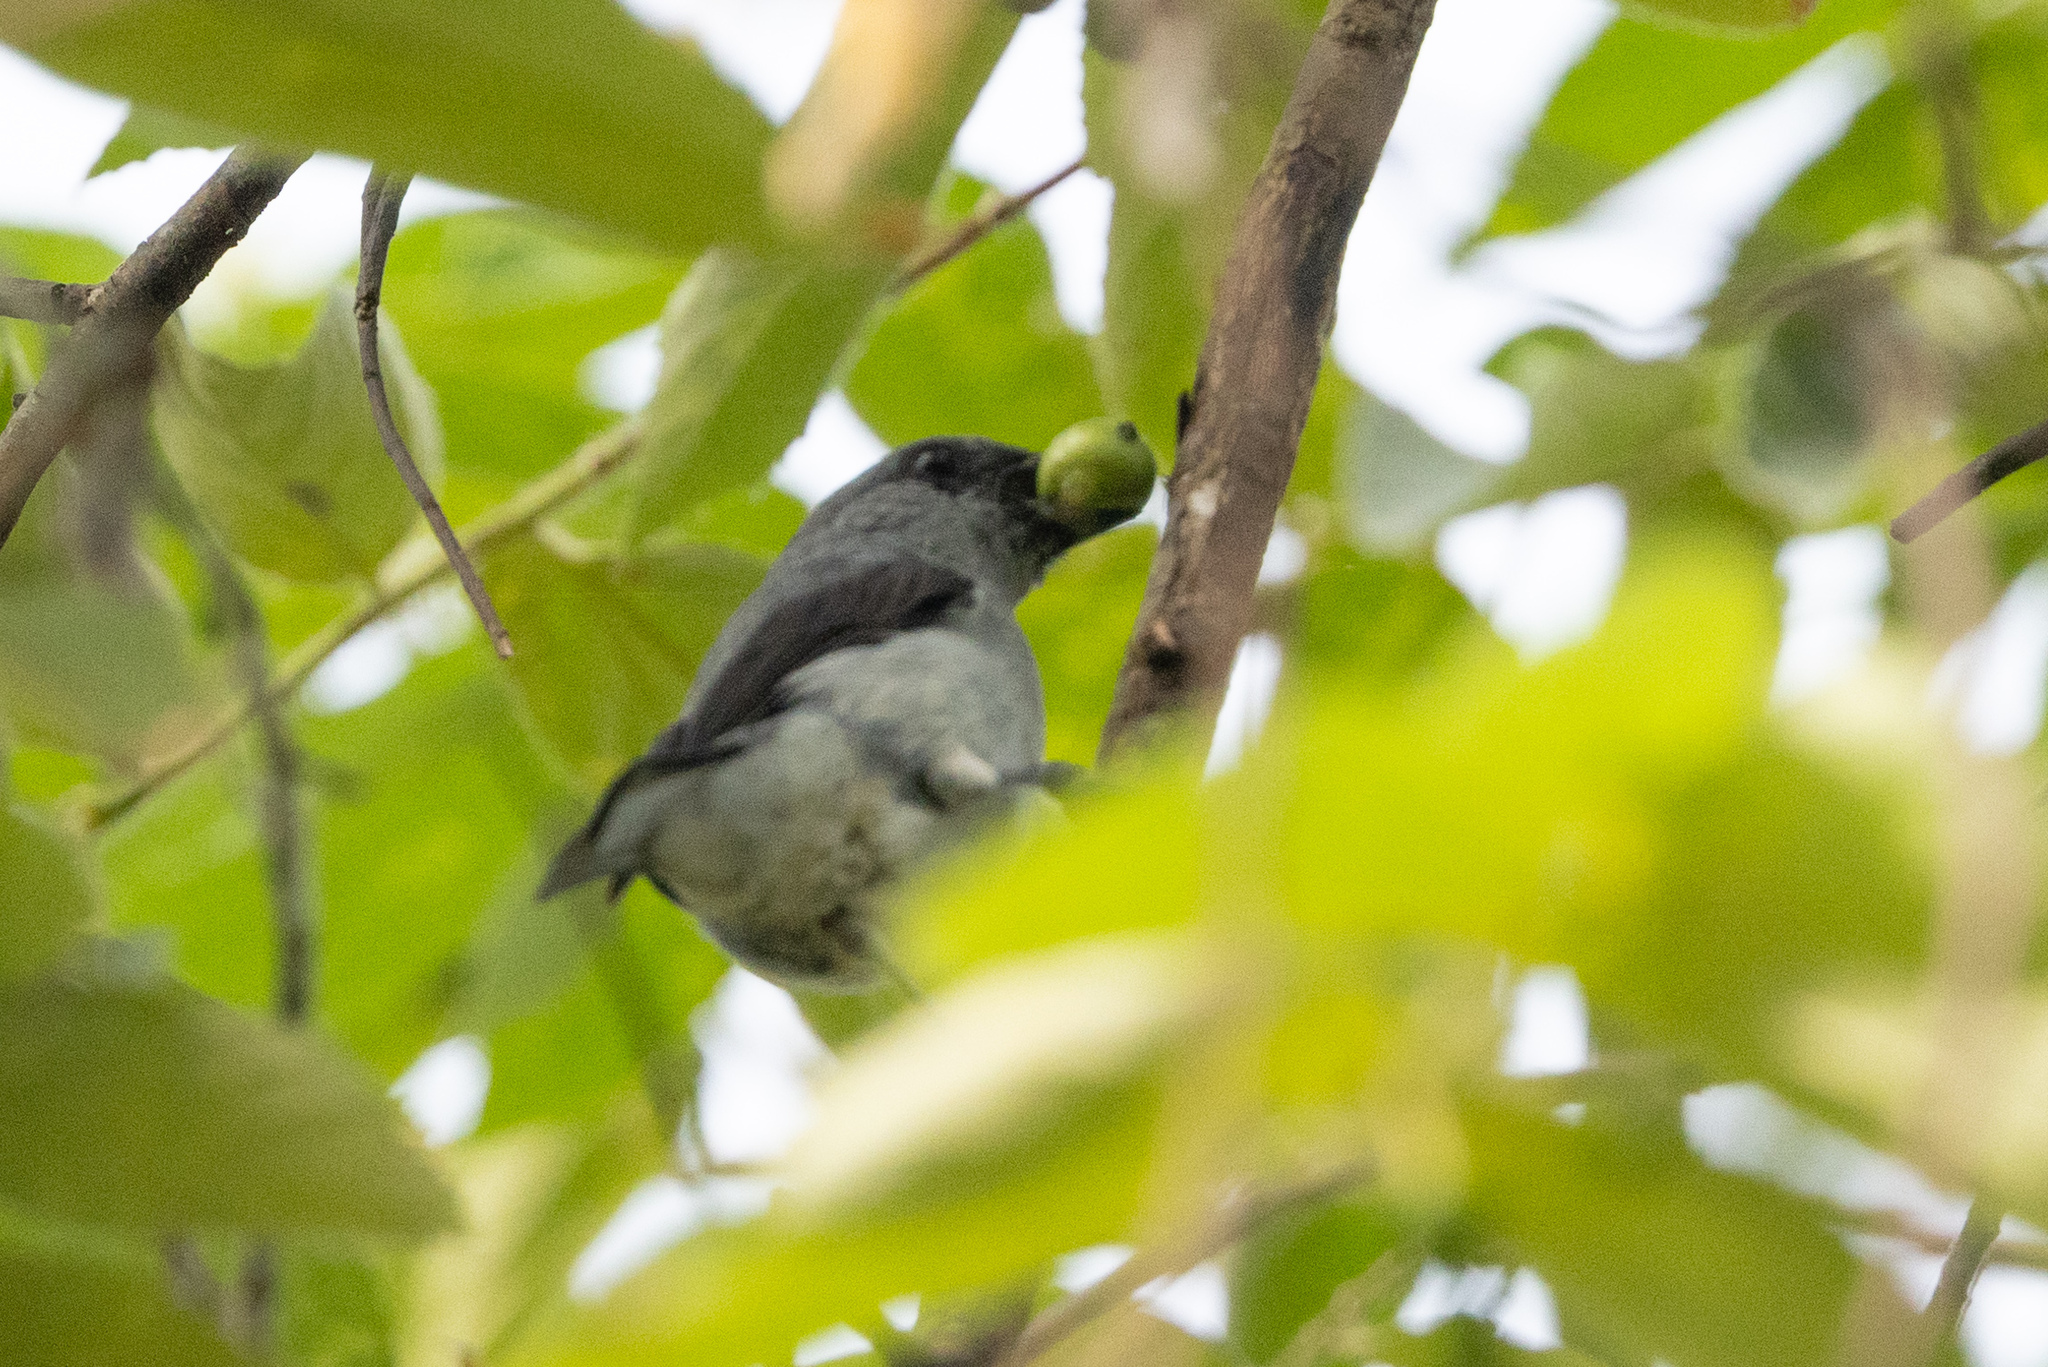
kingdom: Animalia
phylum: Chordata
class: Aves
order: Passeriformes
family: Thraupidae
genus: Tangara
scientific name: Tangara inornata
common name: Plain-colored tanager
